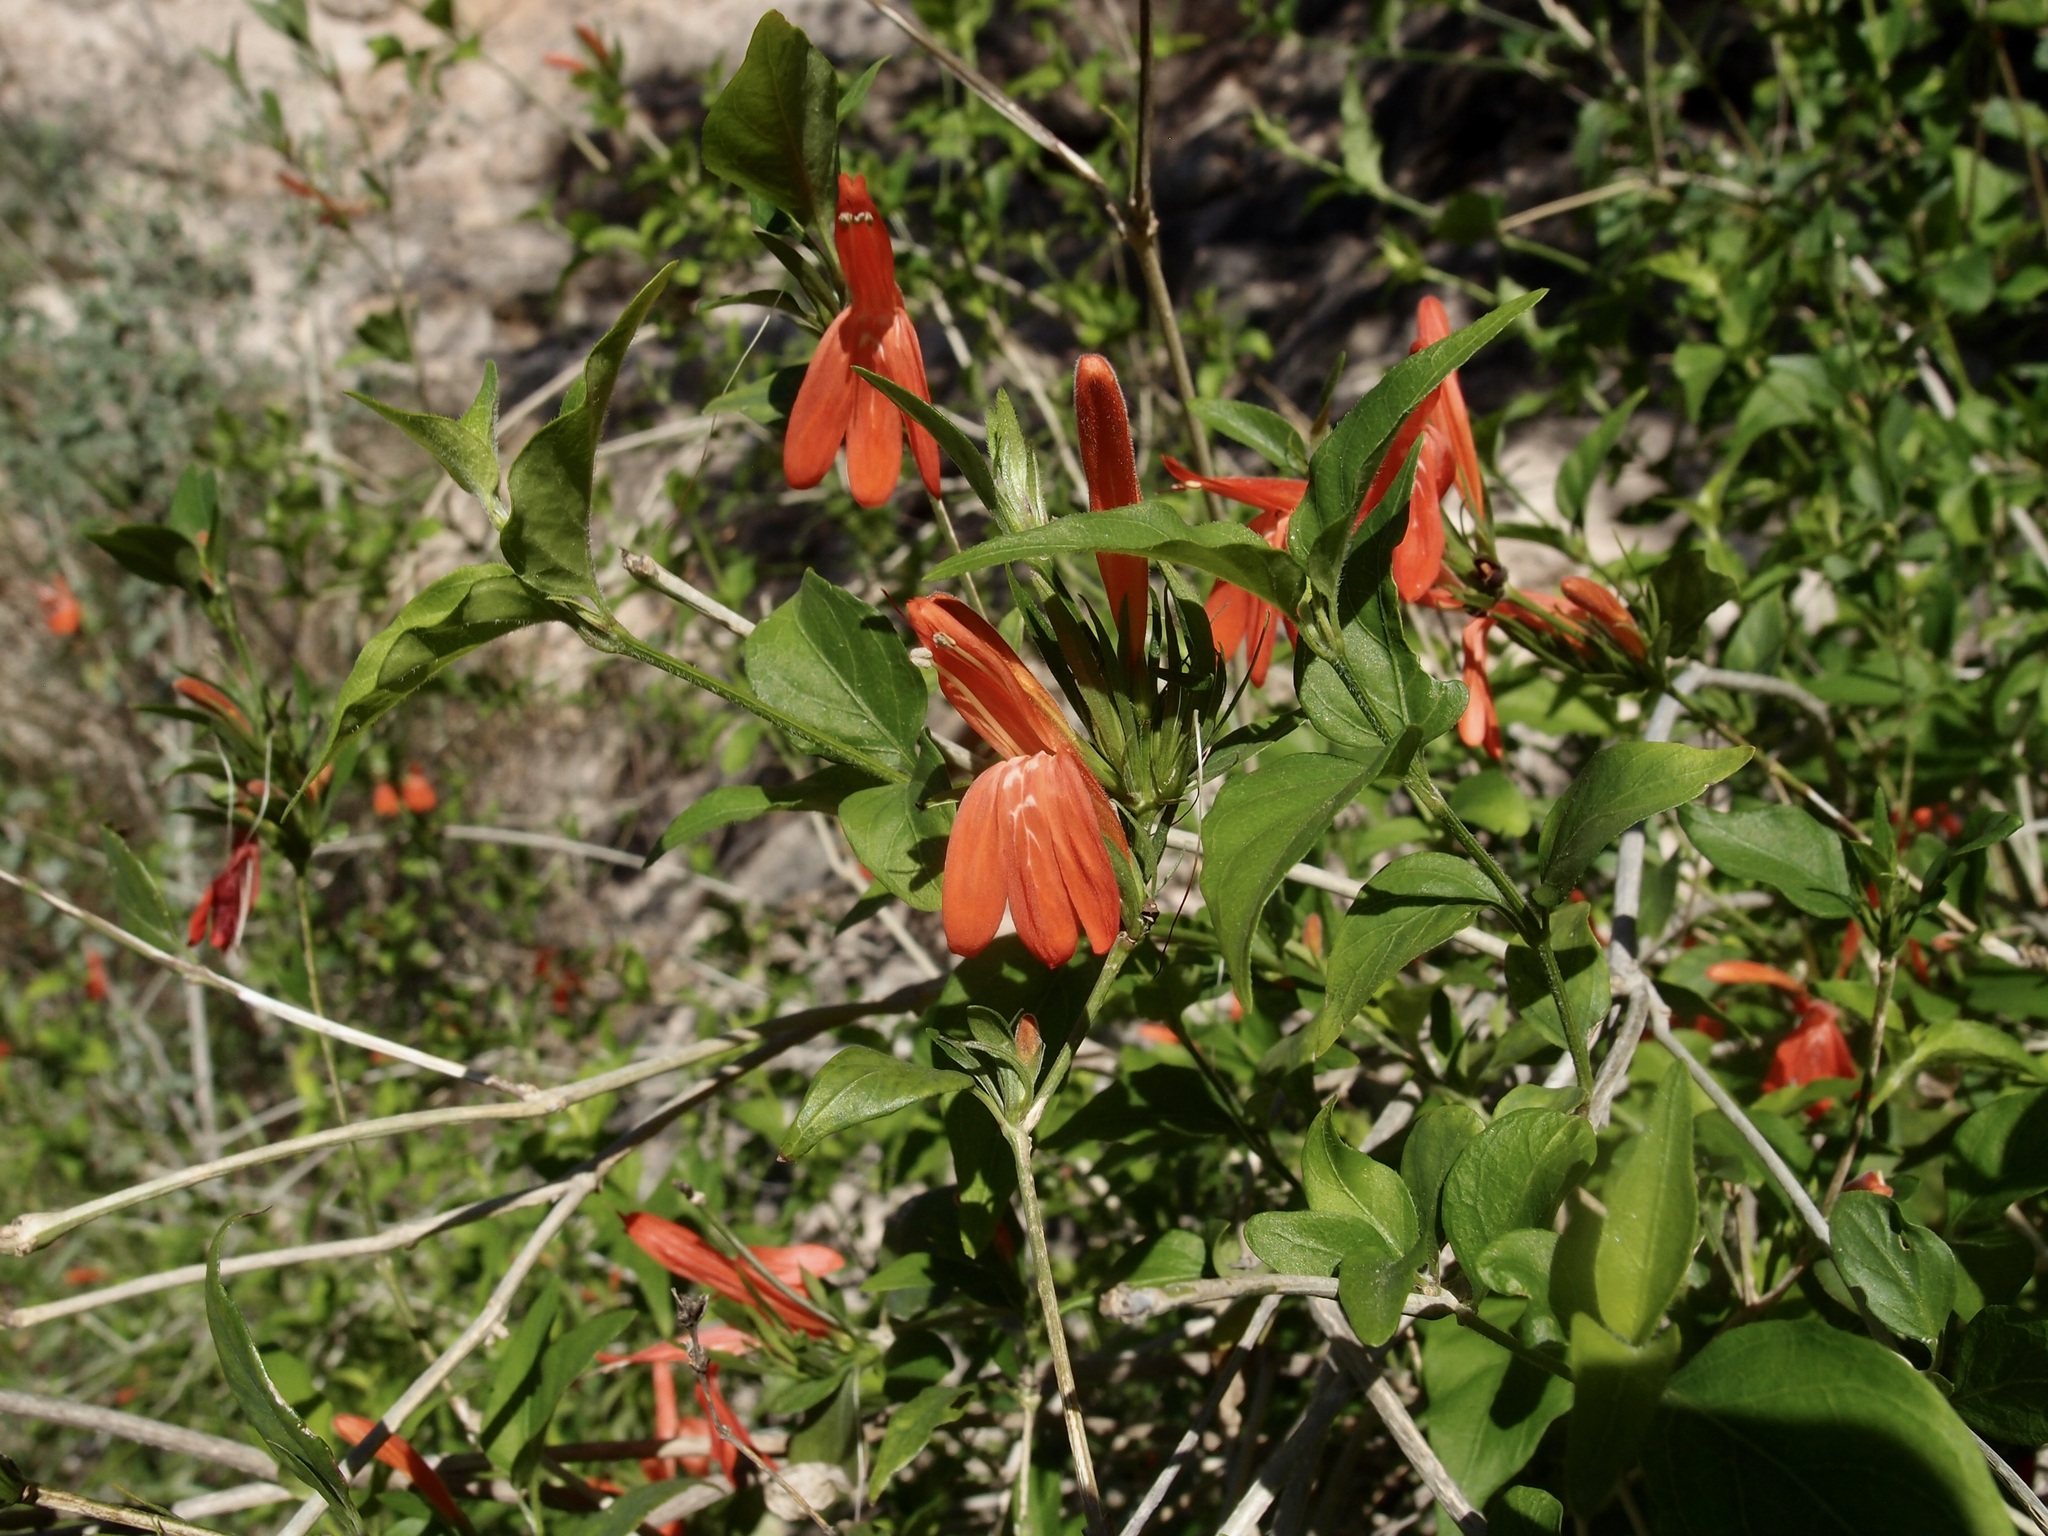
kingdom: Plantae
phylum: Tracheophyta
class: Magnoliopsida
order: Lamiales
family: Acanthaceae
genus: Dianthera
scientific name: Dianthera candicans
